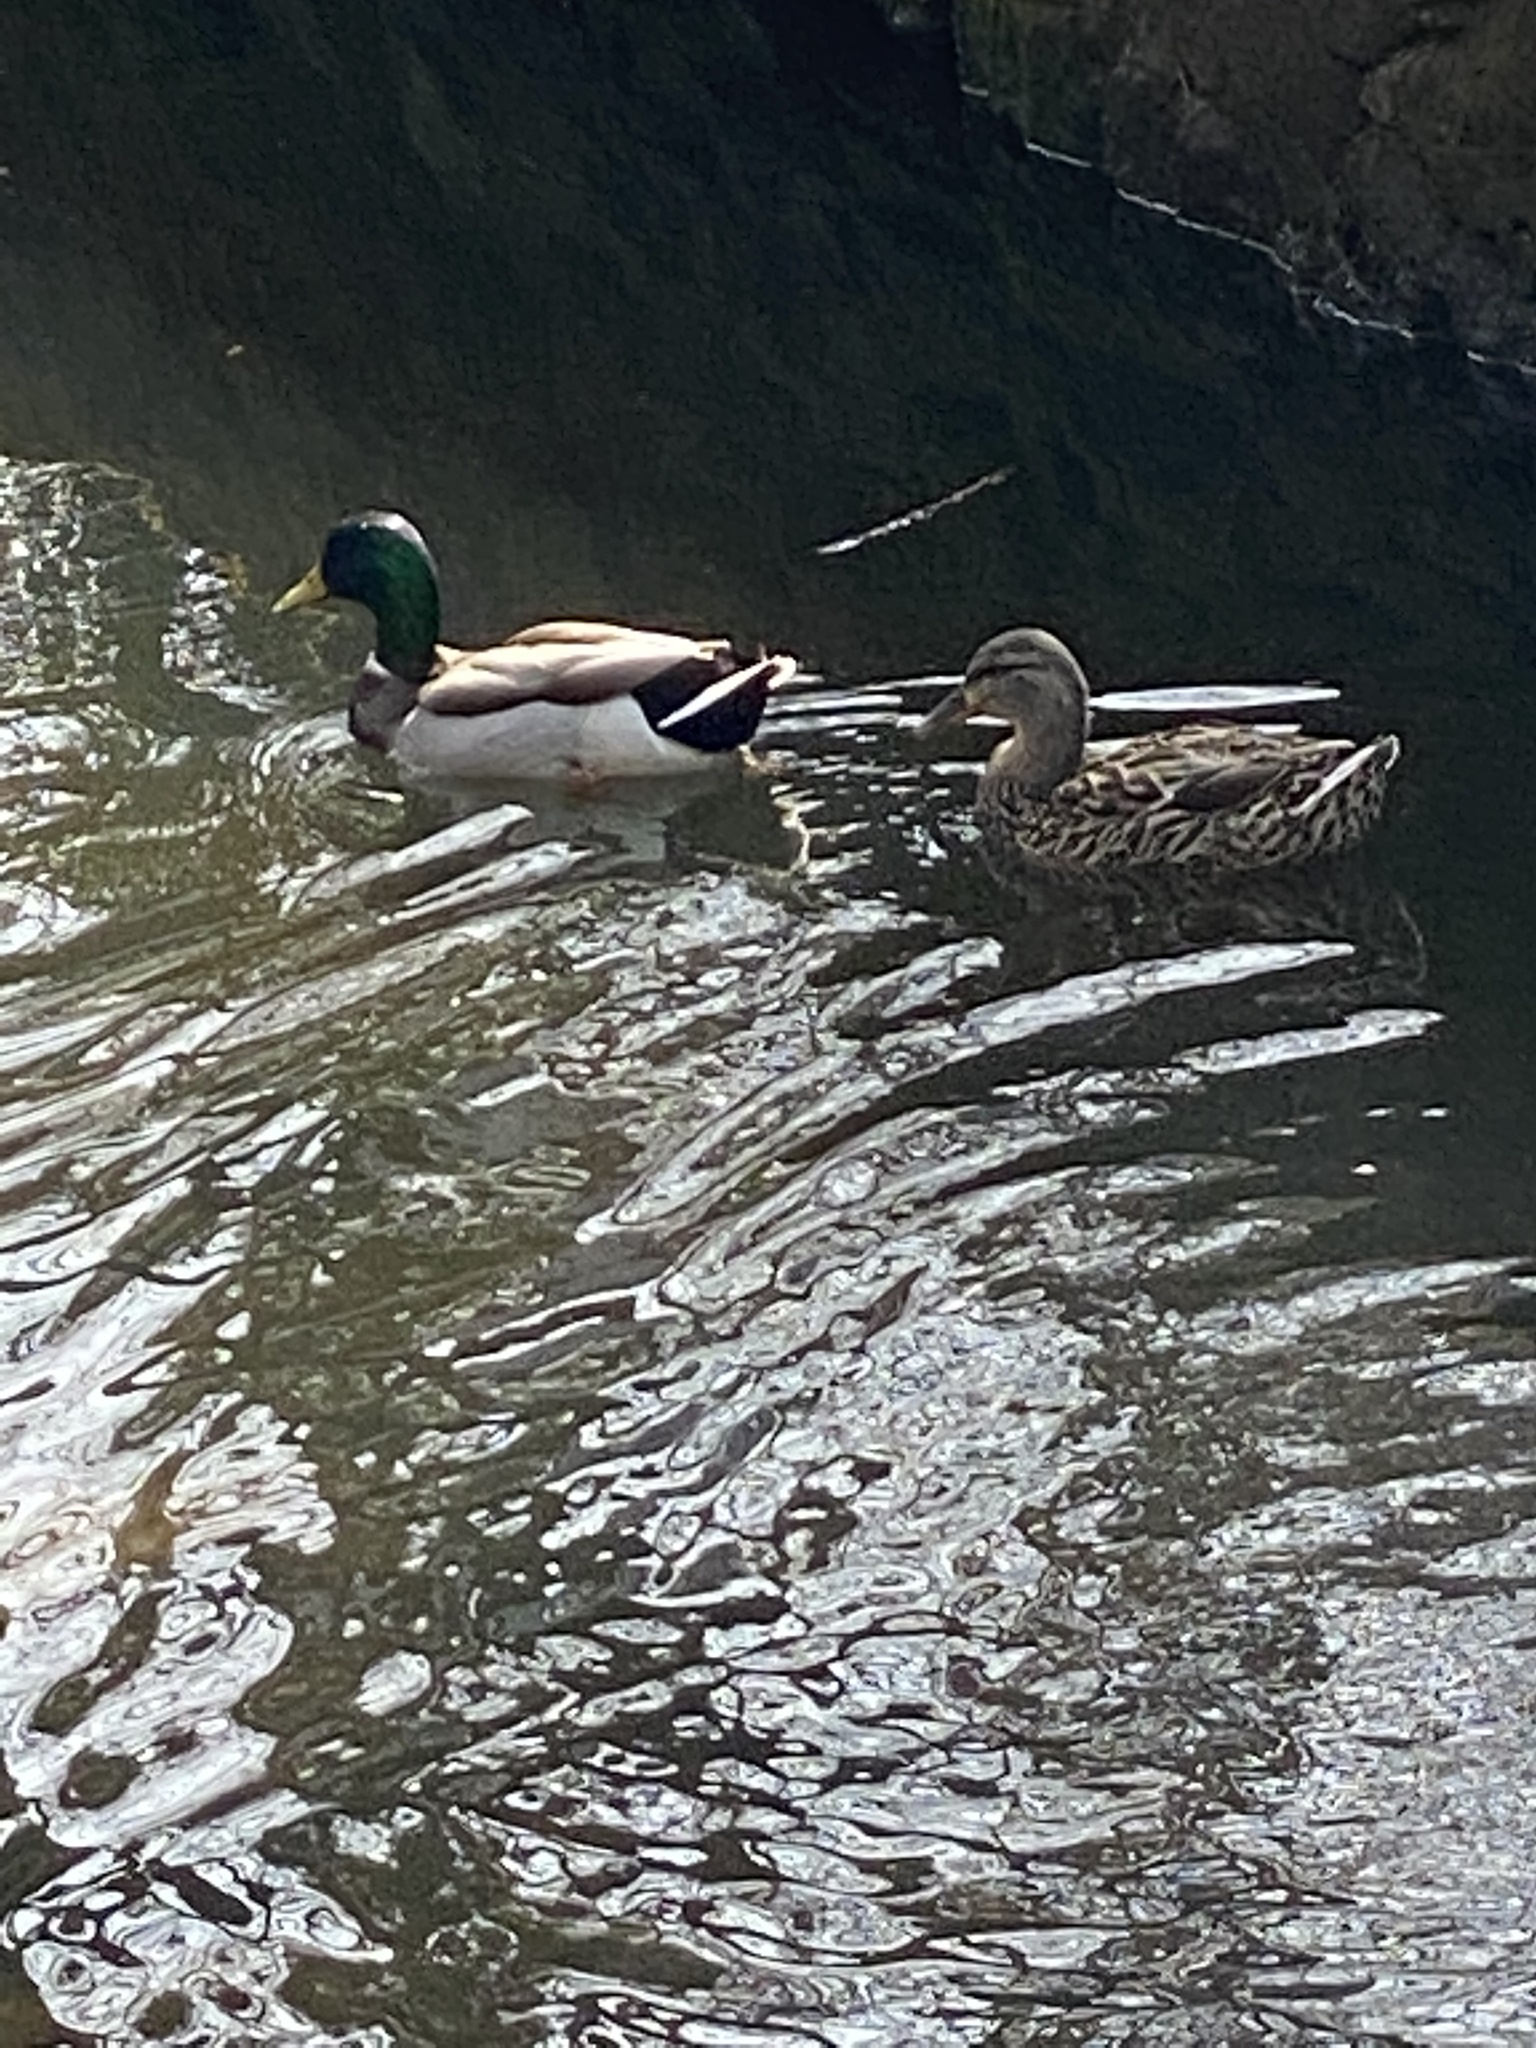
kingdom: Animalia
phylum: Chordata
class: Aves
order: Anseriformes
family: Anatidae
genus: Anas
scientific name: Anas platyrhynchos
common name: Mallard
